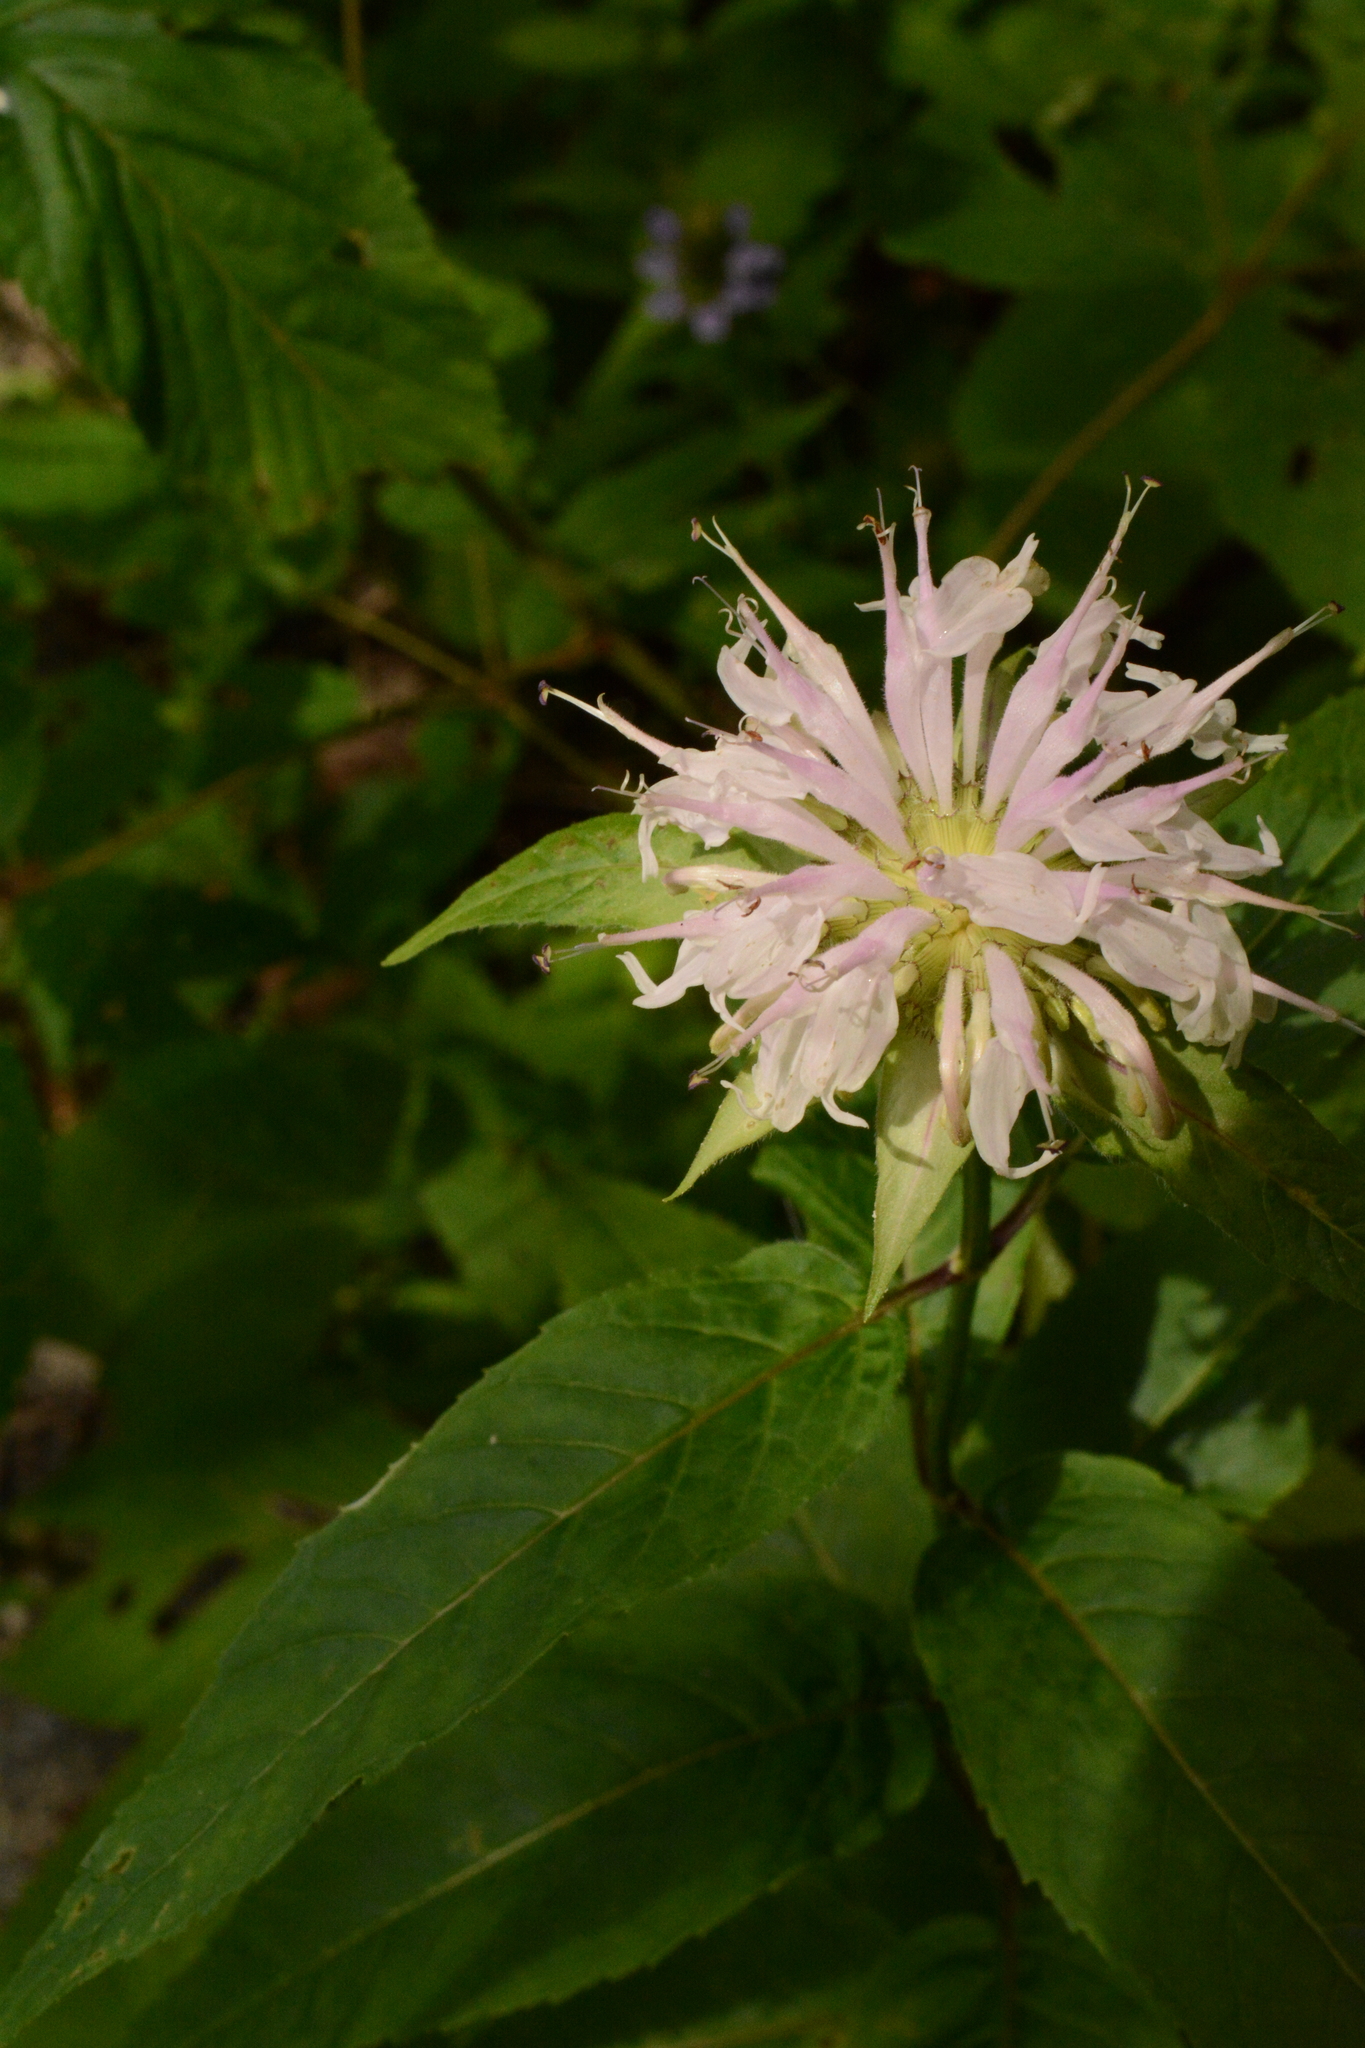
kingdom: Plantae
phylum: Tracheophyta
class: Magnoliopsida
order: Lamiales
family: Lamiaceae
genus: Monarda
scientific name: Monarda clinopodia
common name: Basil beebalm
